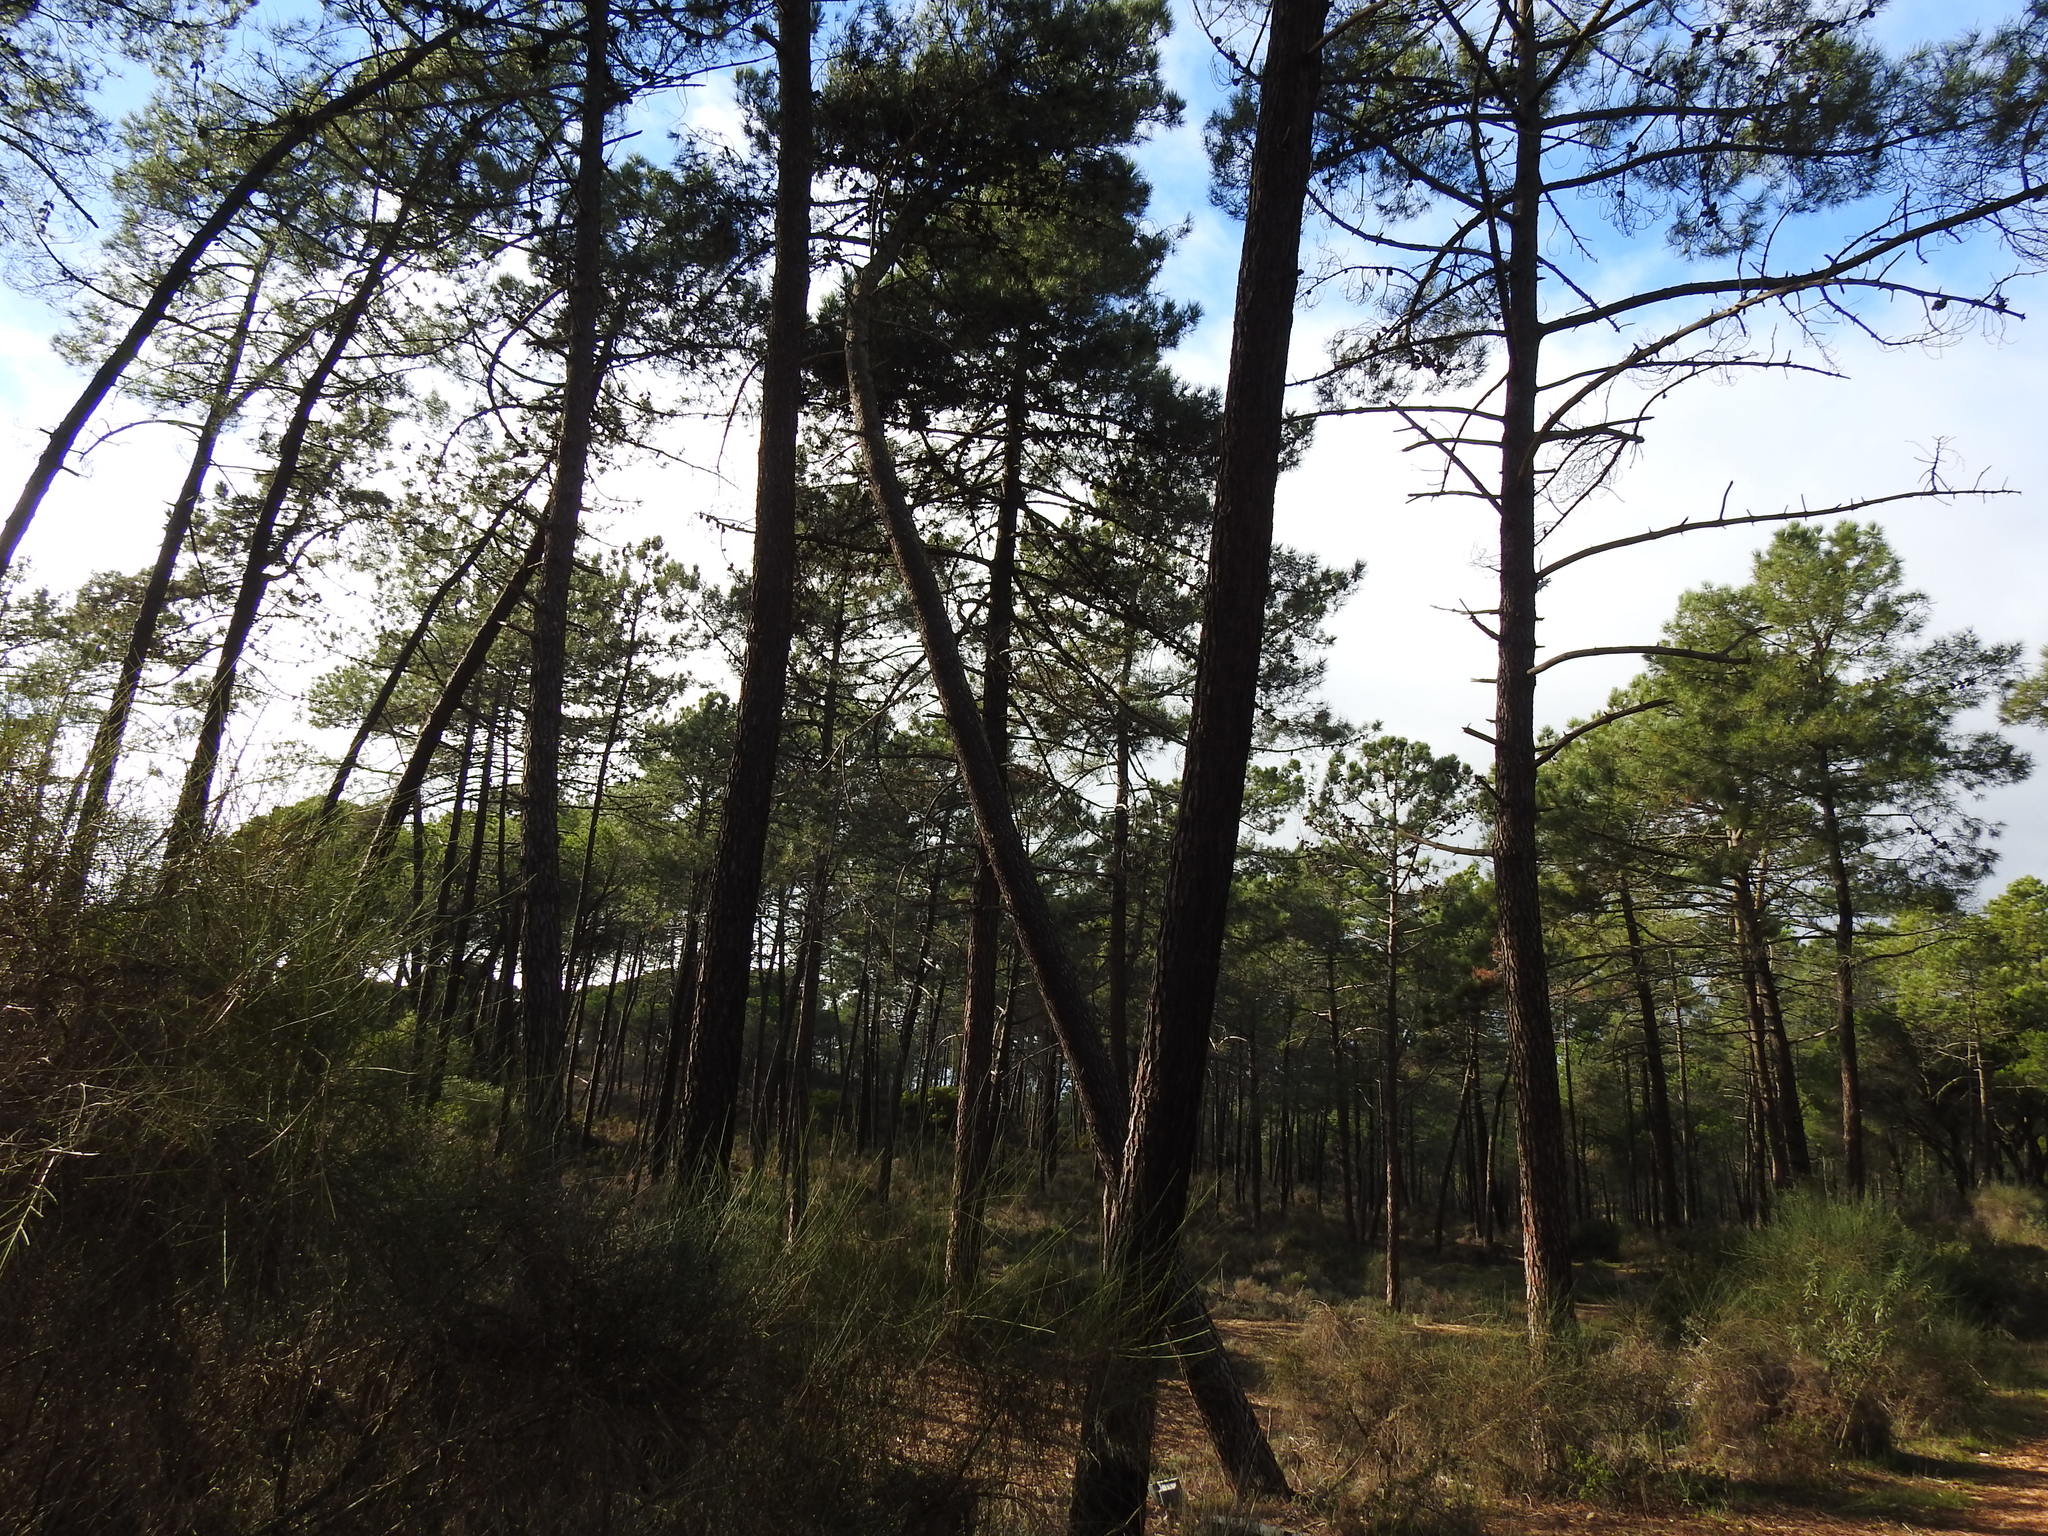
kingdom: Plantae
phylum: Tracheophyta
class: Pinopsida
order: Pinales
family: Pinaceae
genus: Pinus
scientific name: Pinus pinaster
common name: Maritime pine
